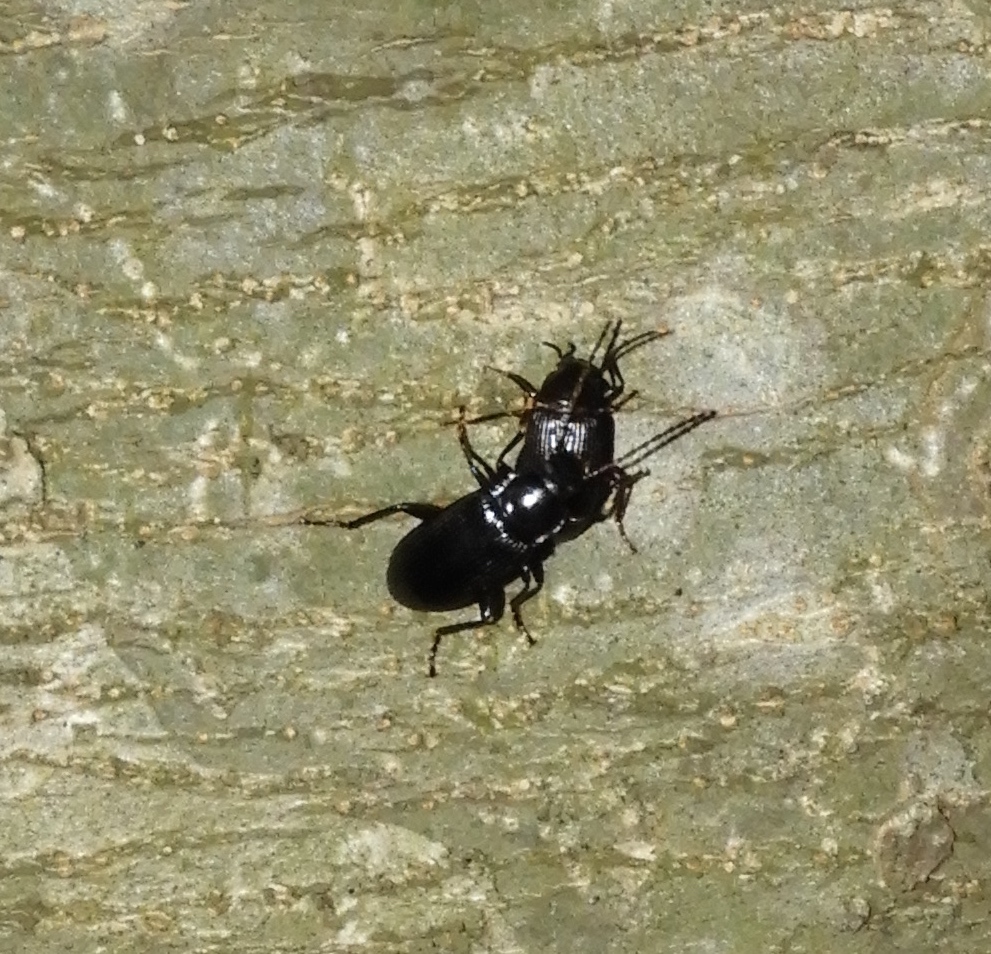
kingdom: Animalia
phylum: Arthropoda
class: Insecta
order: Coleoptera
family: Helopii
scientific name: Helopii
